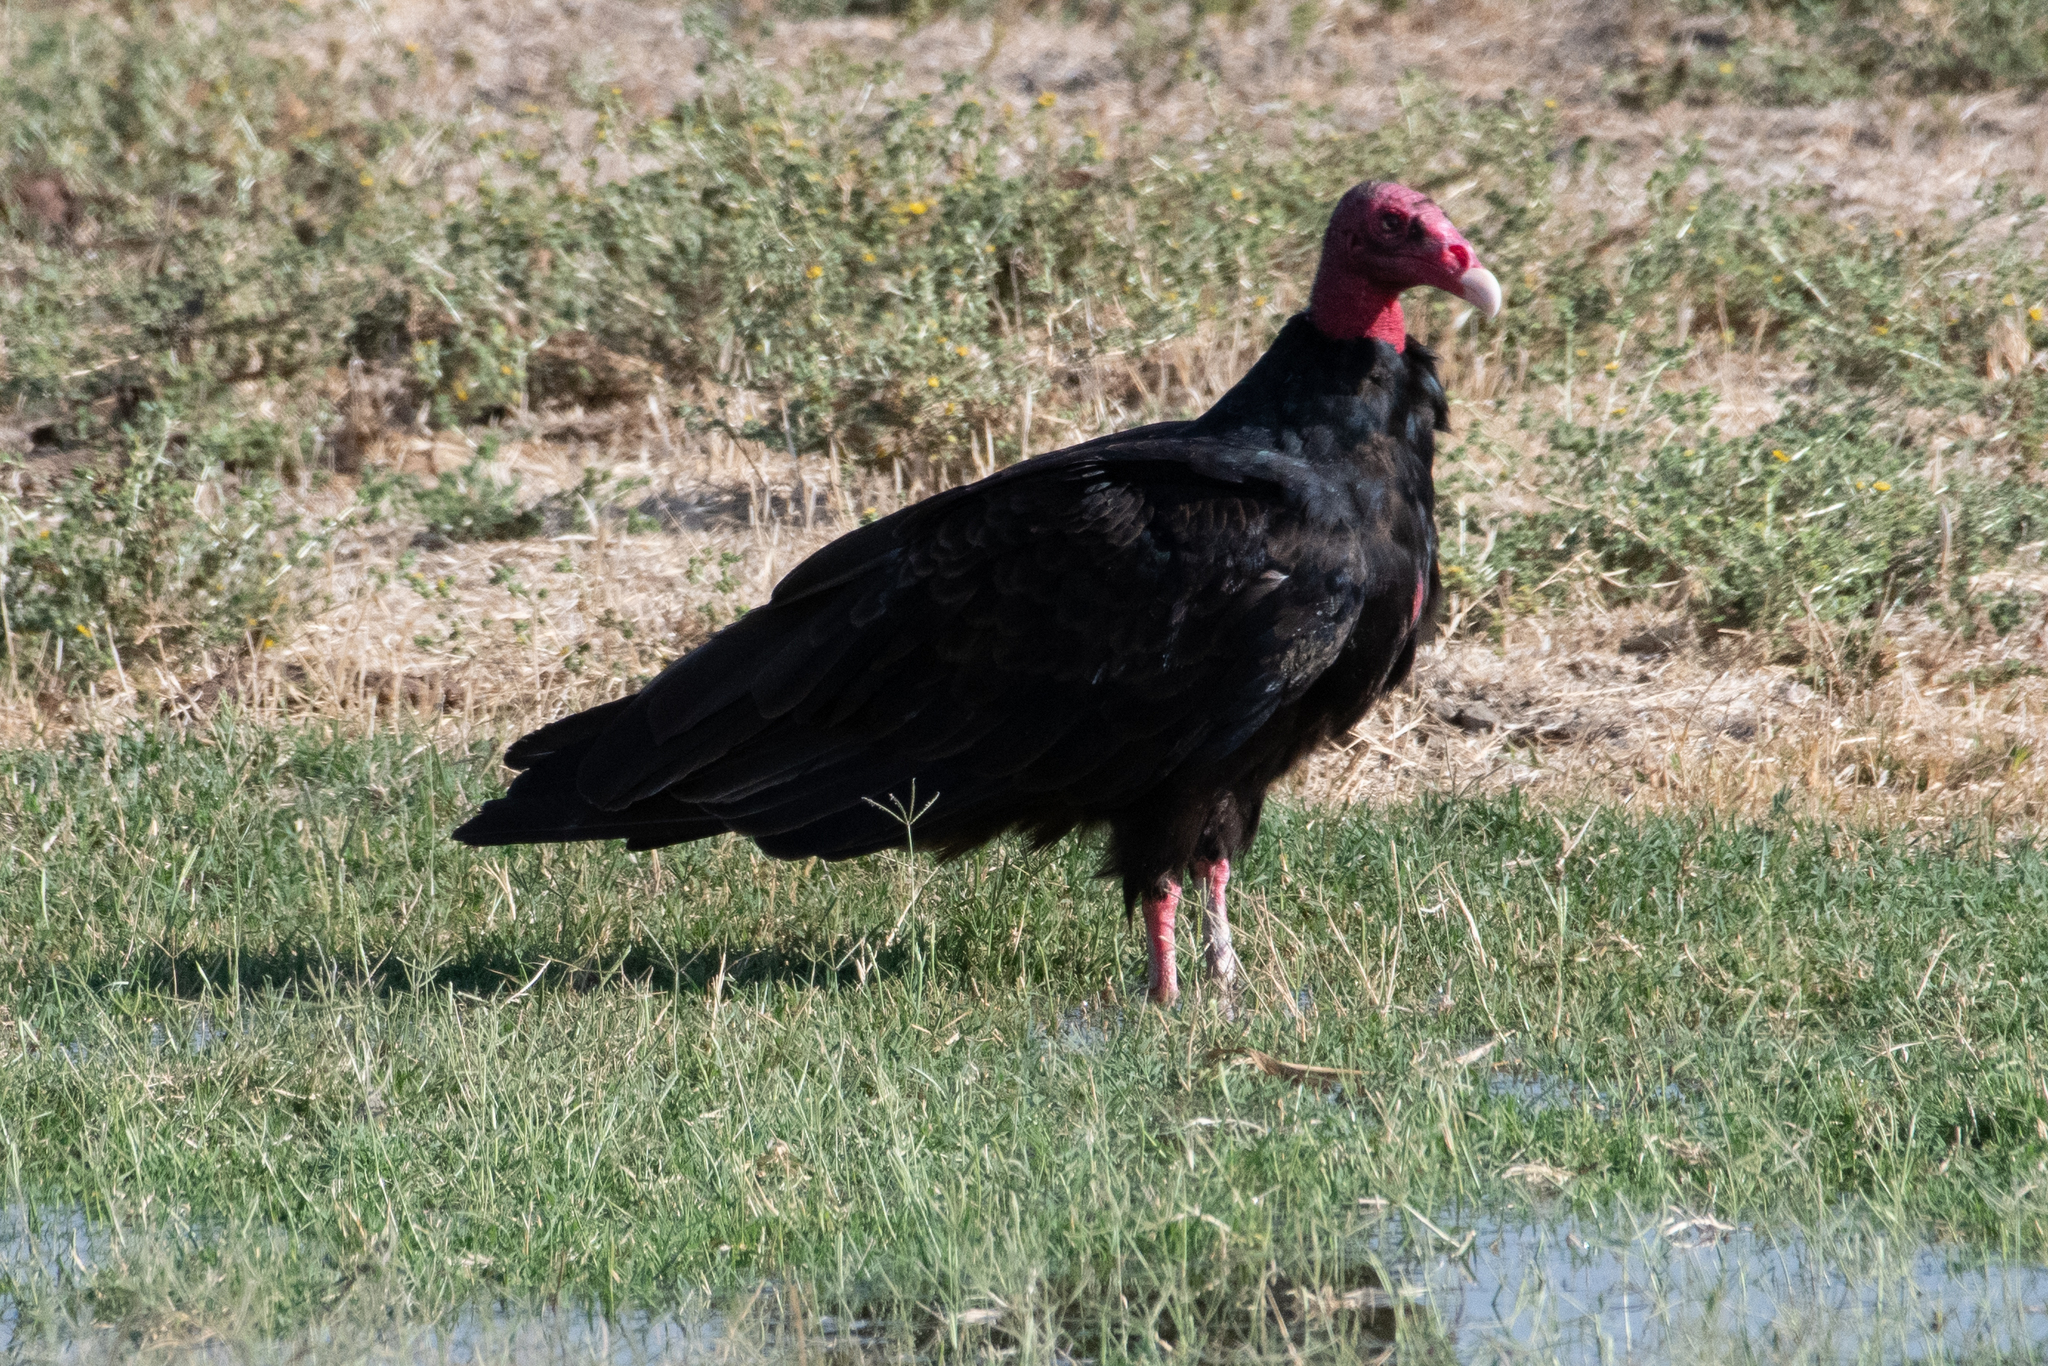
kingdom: Animalia
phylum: Chordata
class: Aves
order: Accipitriformes
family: Cathartidae
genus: Cathartes
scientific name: Cathartes aura
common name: Turkey vulture
